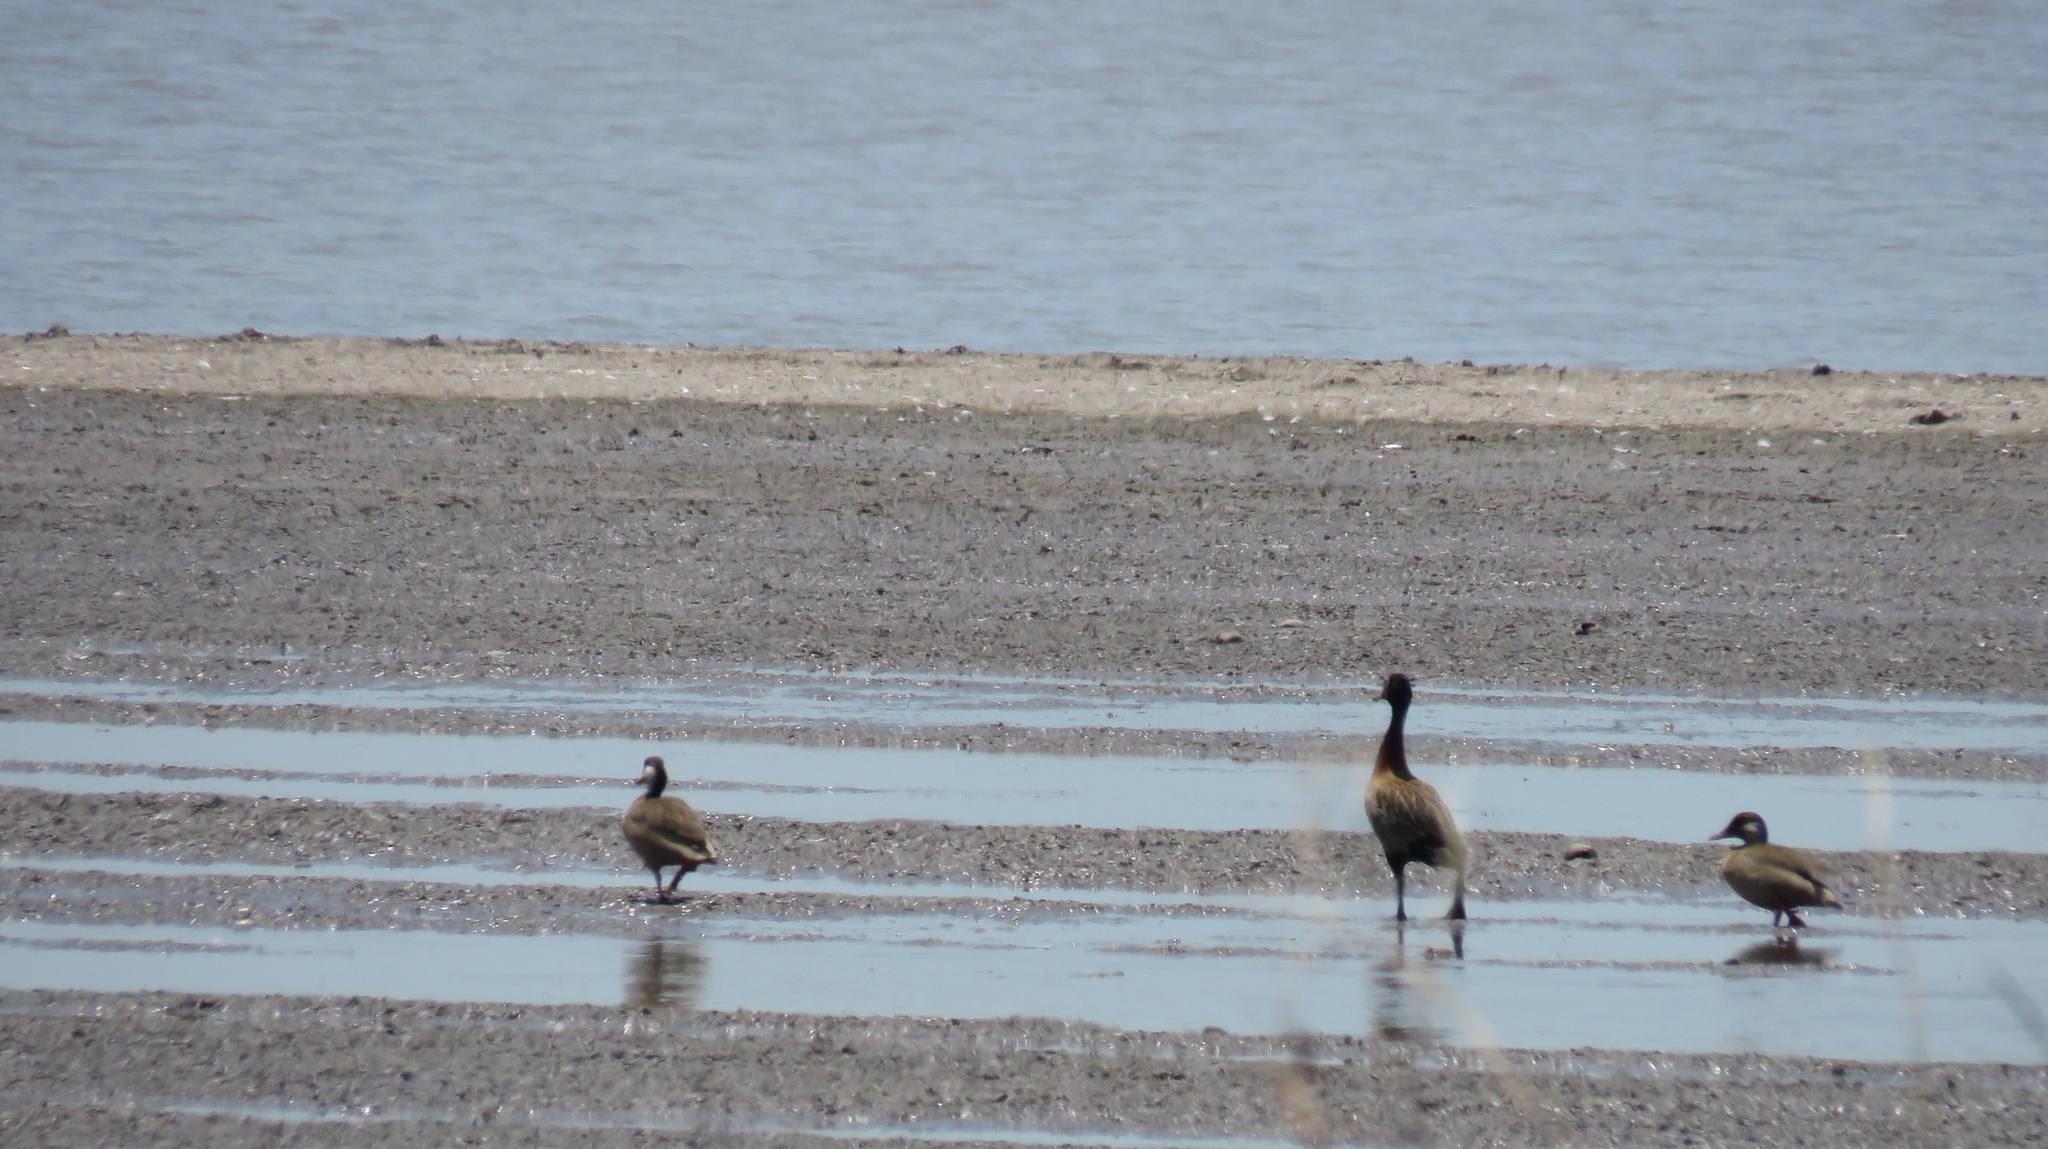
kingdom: Animalia
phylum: Chordata
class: Aves
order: Anseriformes
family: Anatidae
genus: Amazonetta
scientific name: Amazonetta brasiliensis
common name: Brazilian teal
